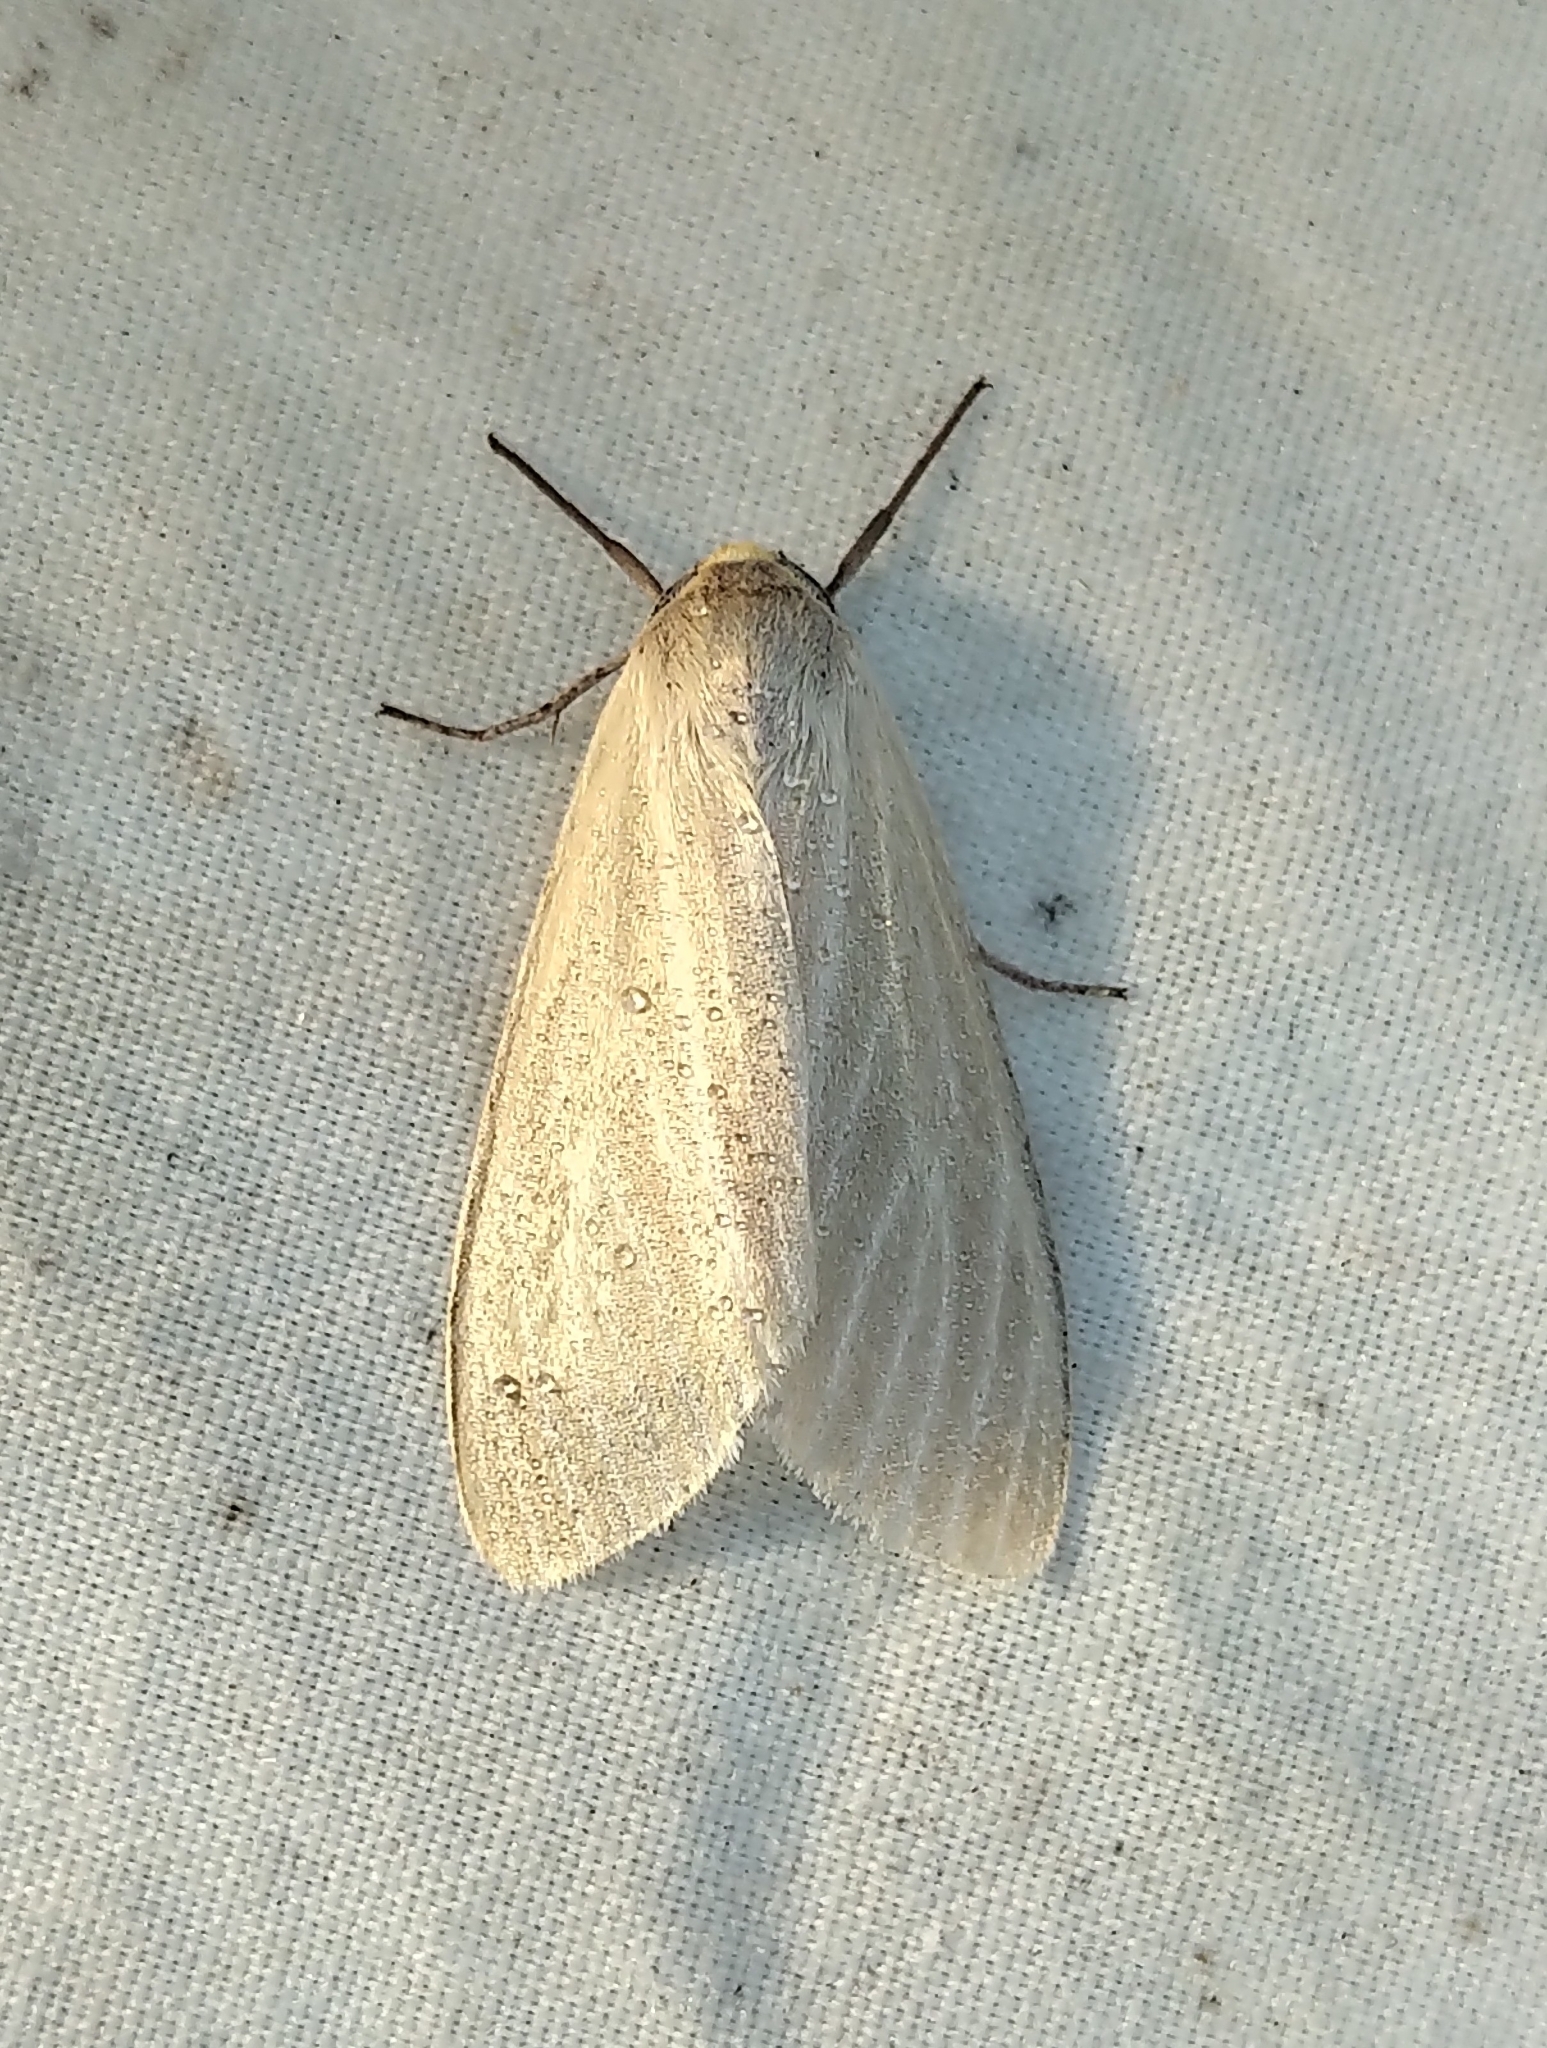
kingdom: Animalia
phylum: Arthropoda
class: Insecta
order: Lepidoptera
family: Erebidae
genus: Cycnia
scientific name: Cycnia oregonensis
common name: Oregon cycnia moth
